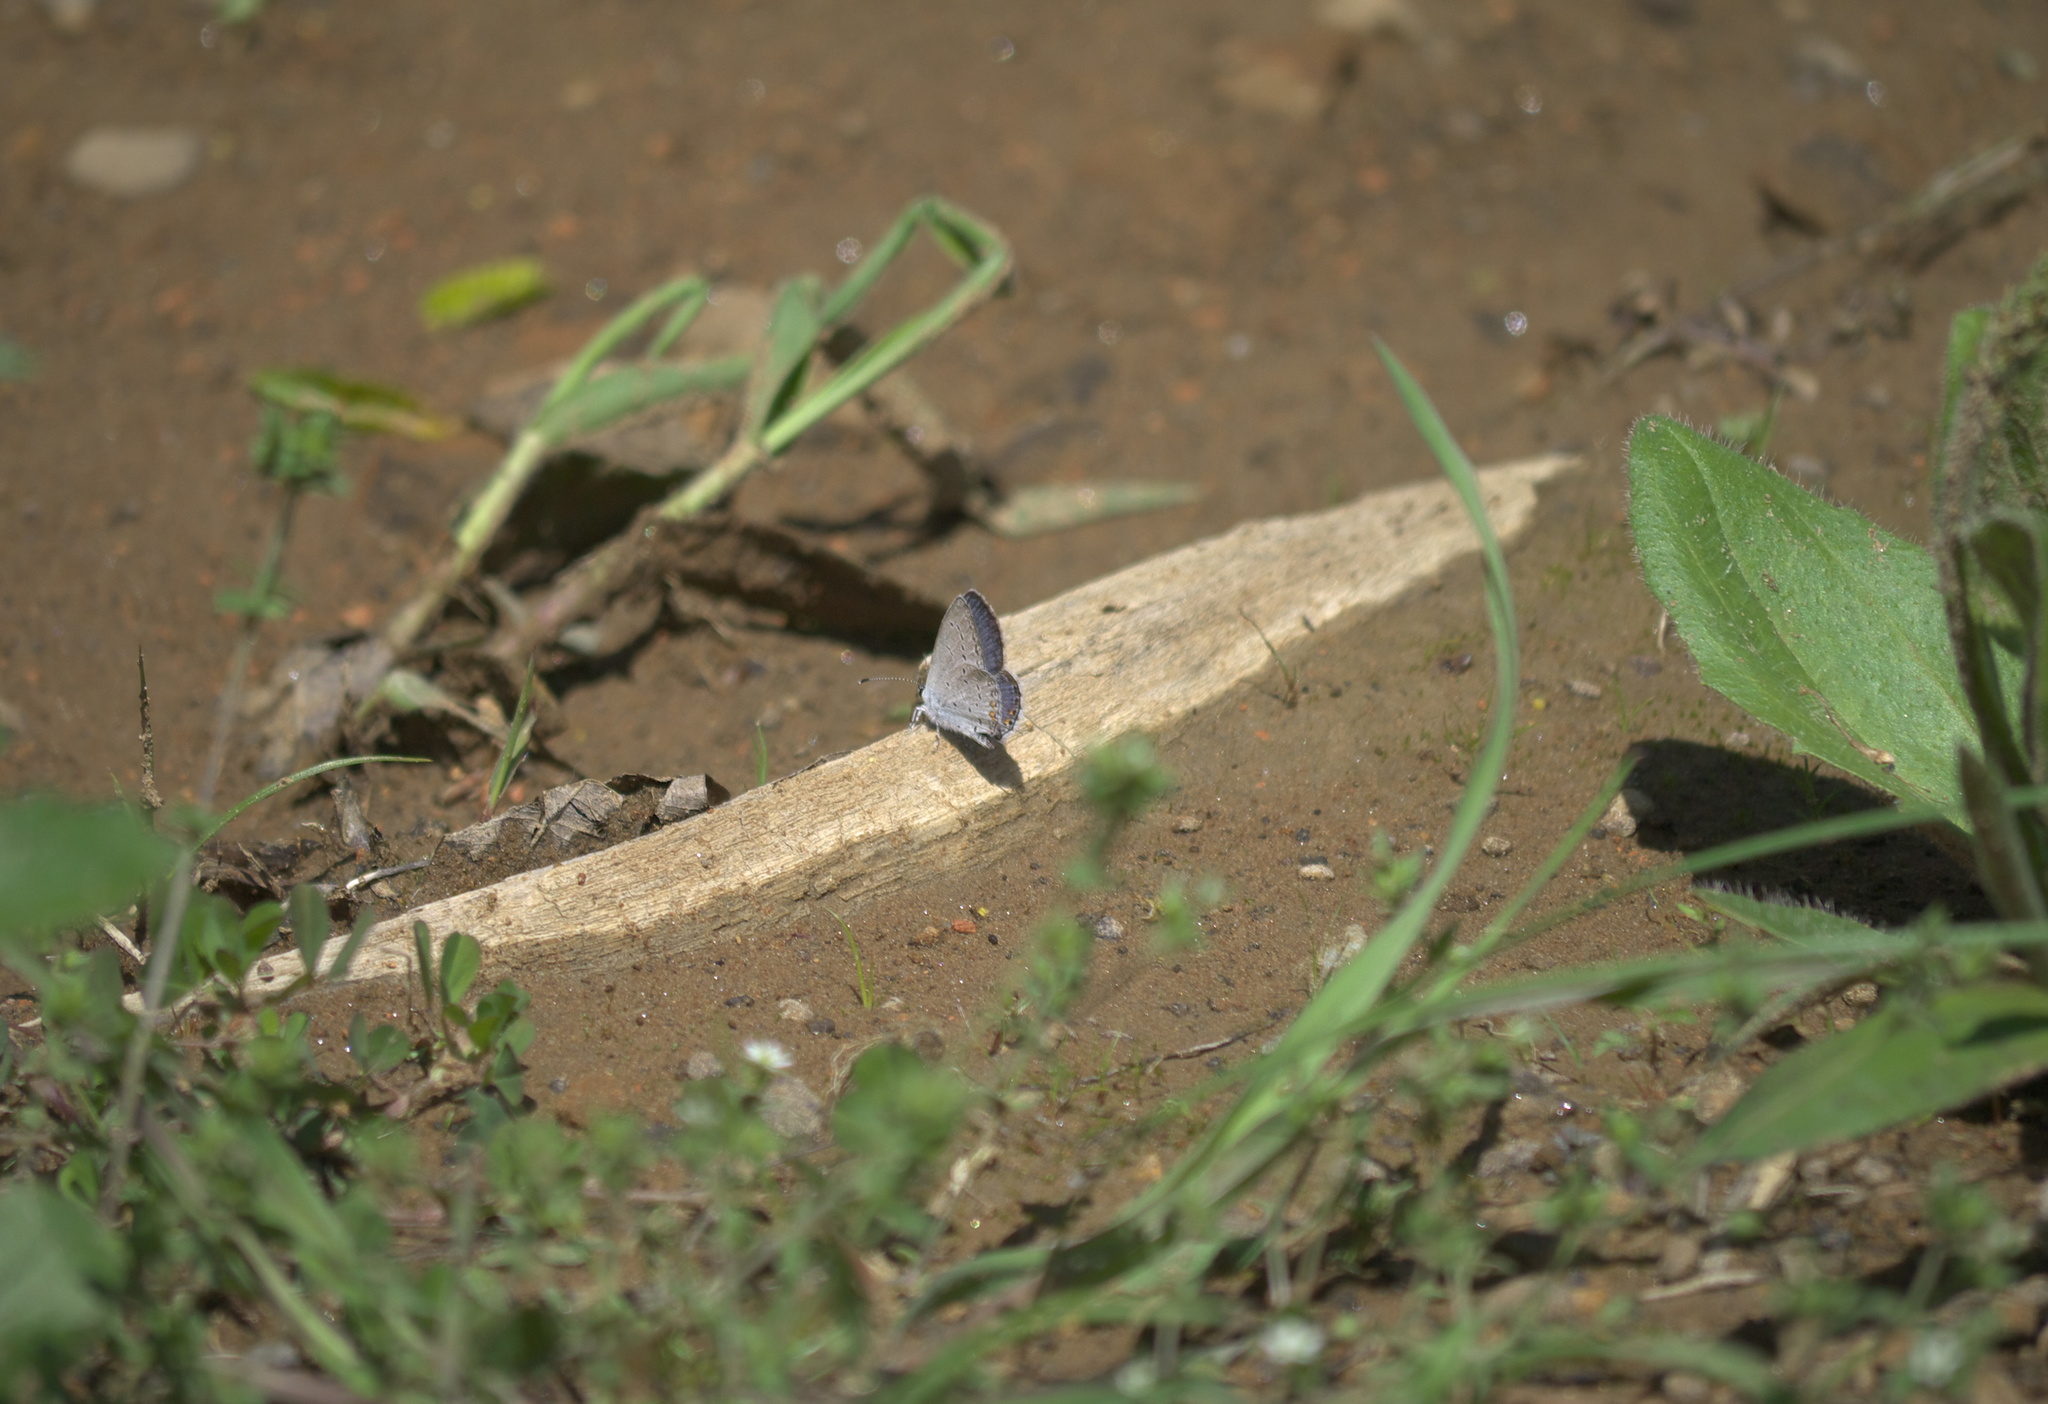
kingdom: Animalia
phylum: Arthropoda
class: Insecta
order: Lepidoptera
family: Lycaenidae
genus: Elkalyce
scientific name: Elkalyce comyntas
